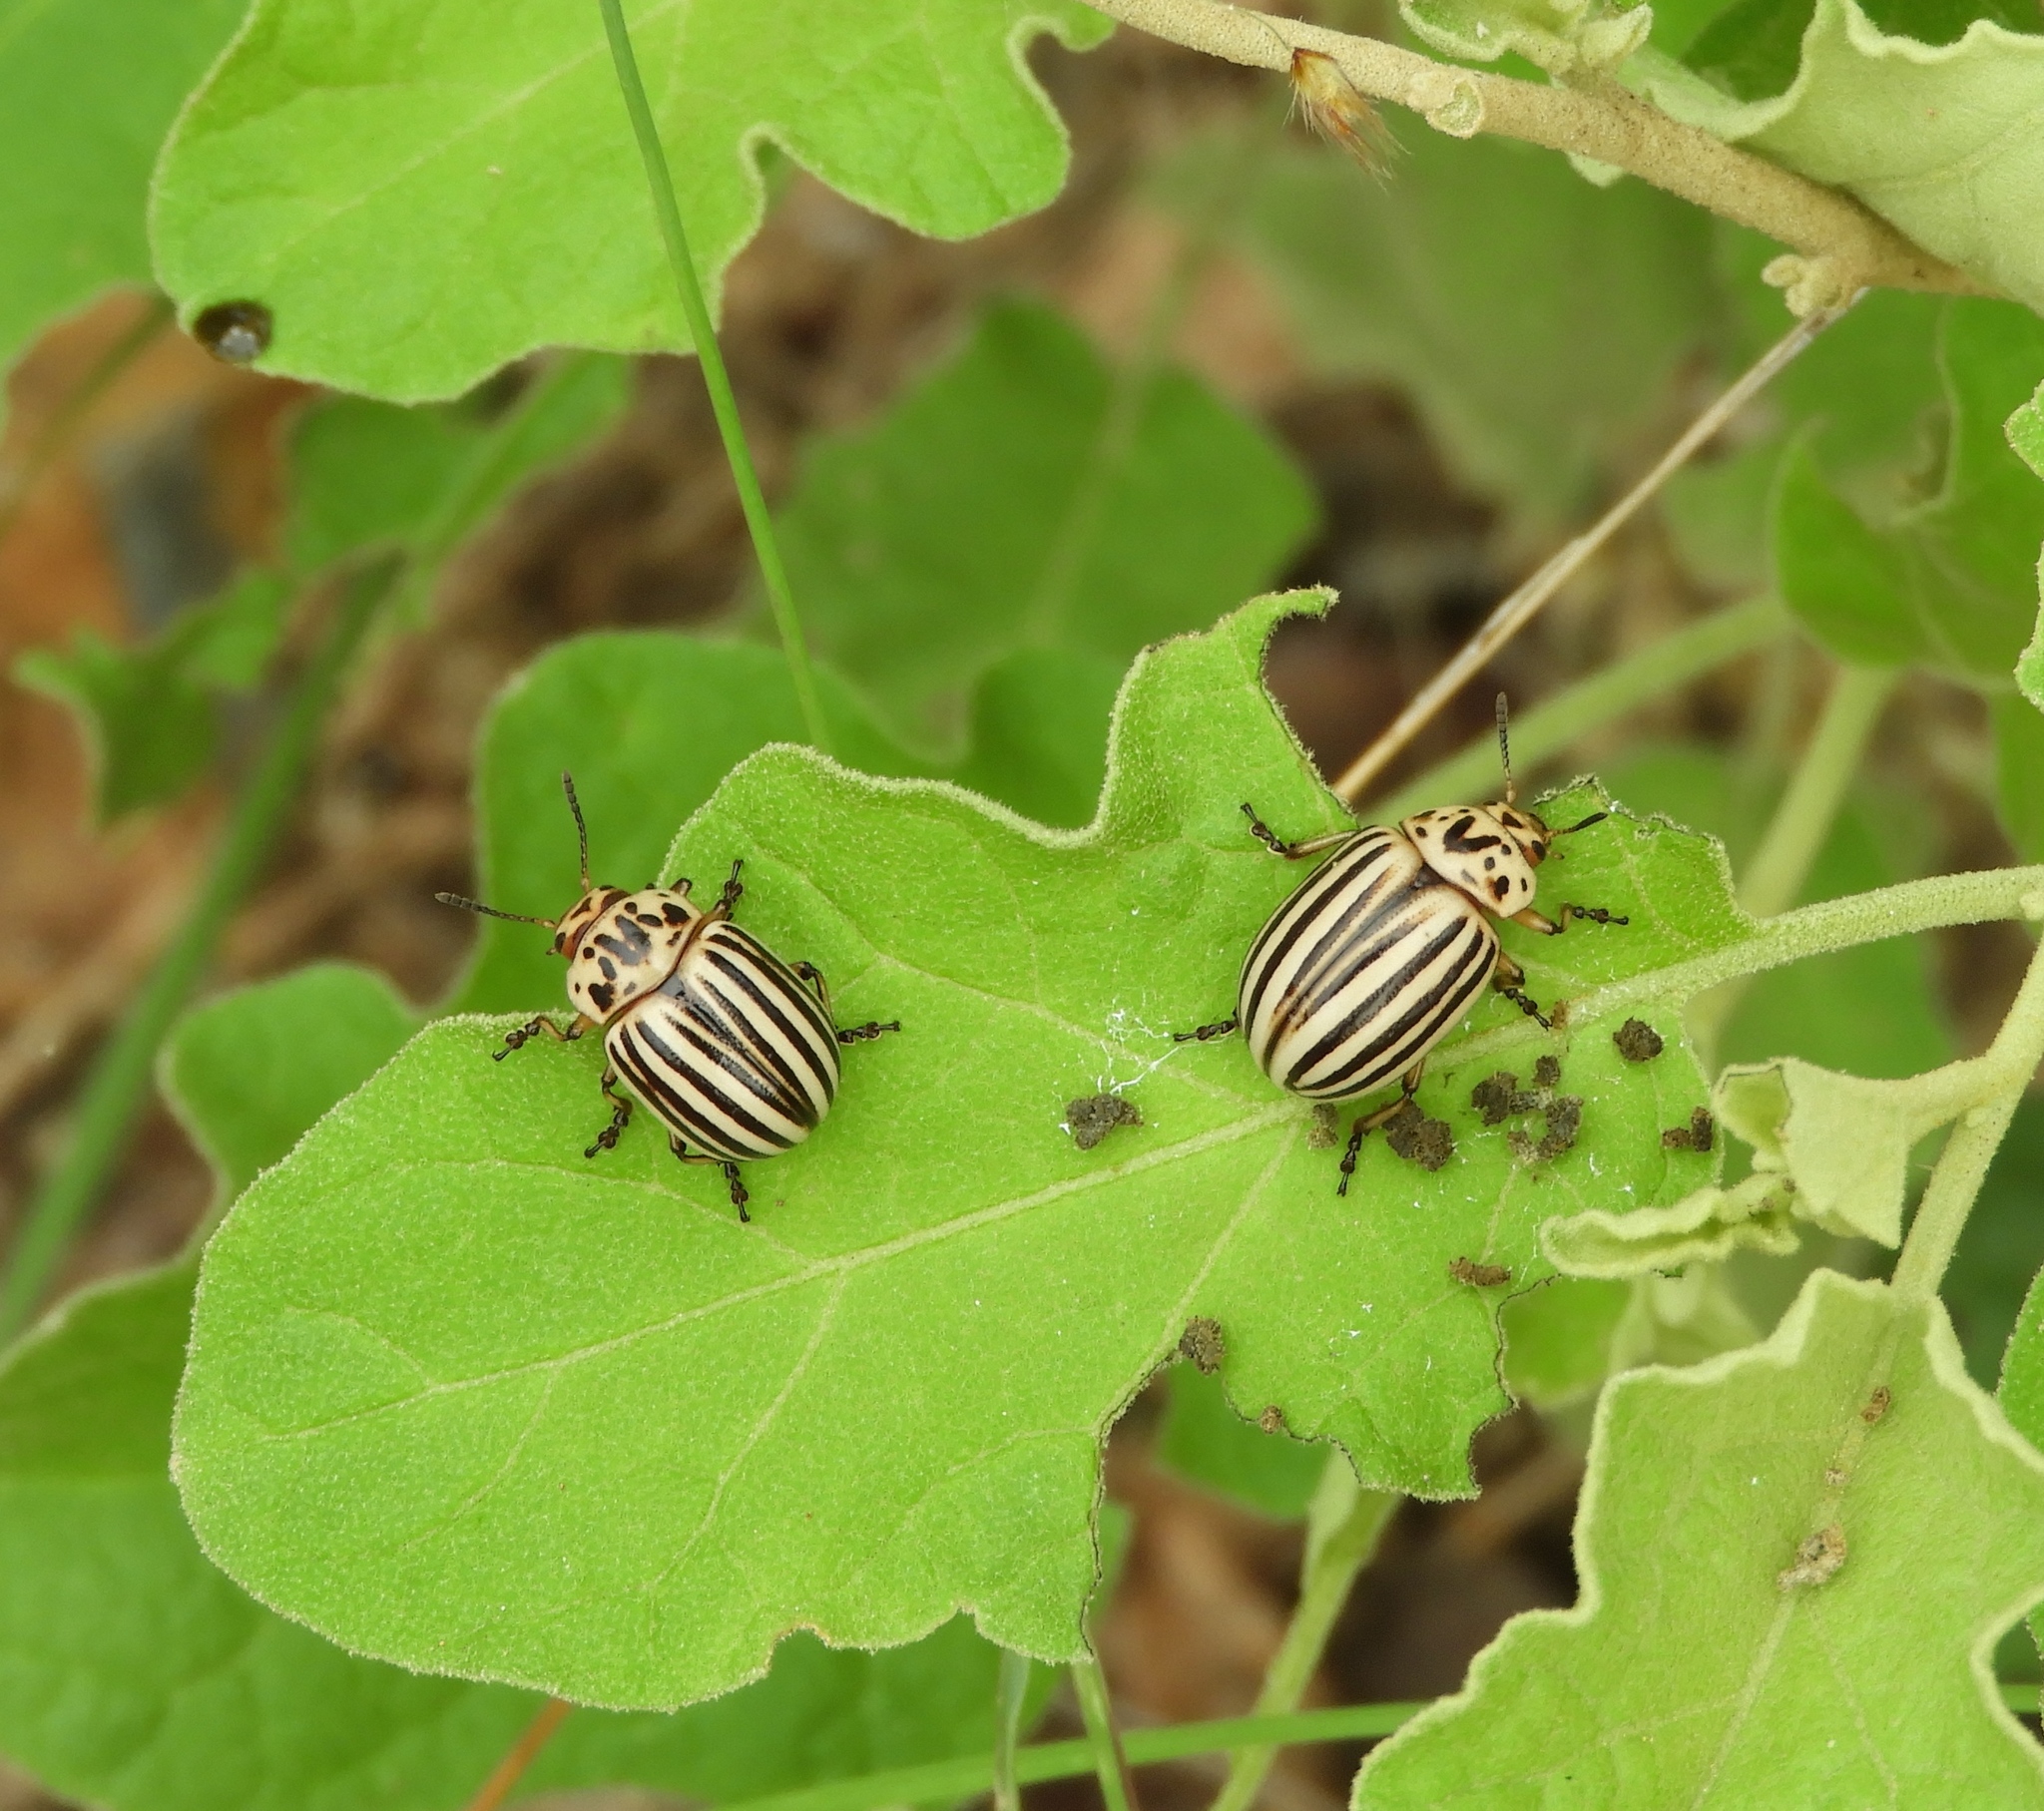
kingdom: Animalia
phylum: Arthropoda
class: Insecta
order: Coleoptera
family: Chrysomelidae
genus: Leptinotarsa
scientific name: Leptinotarsa decemlineata
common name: Colorado potato beetle
